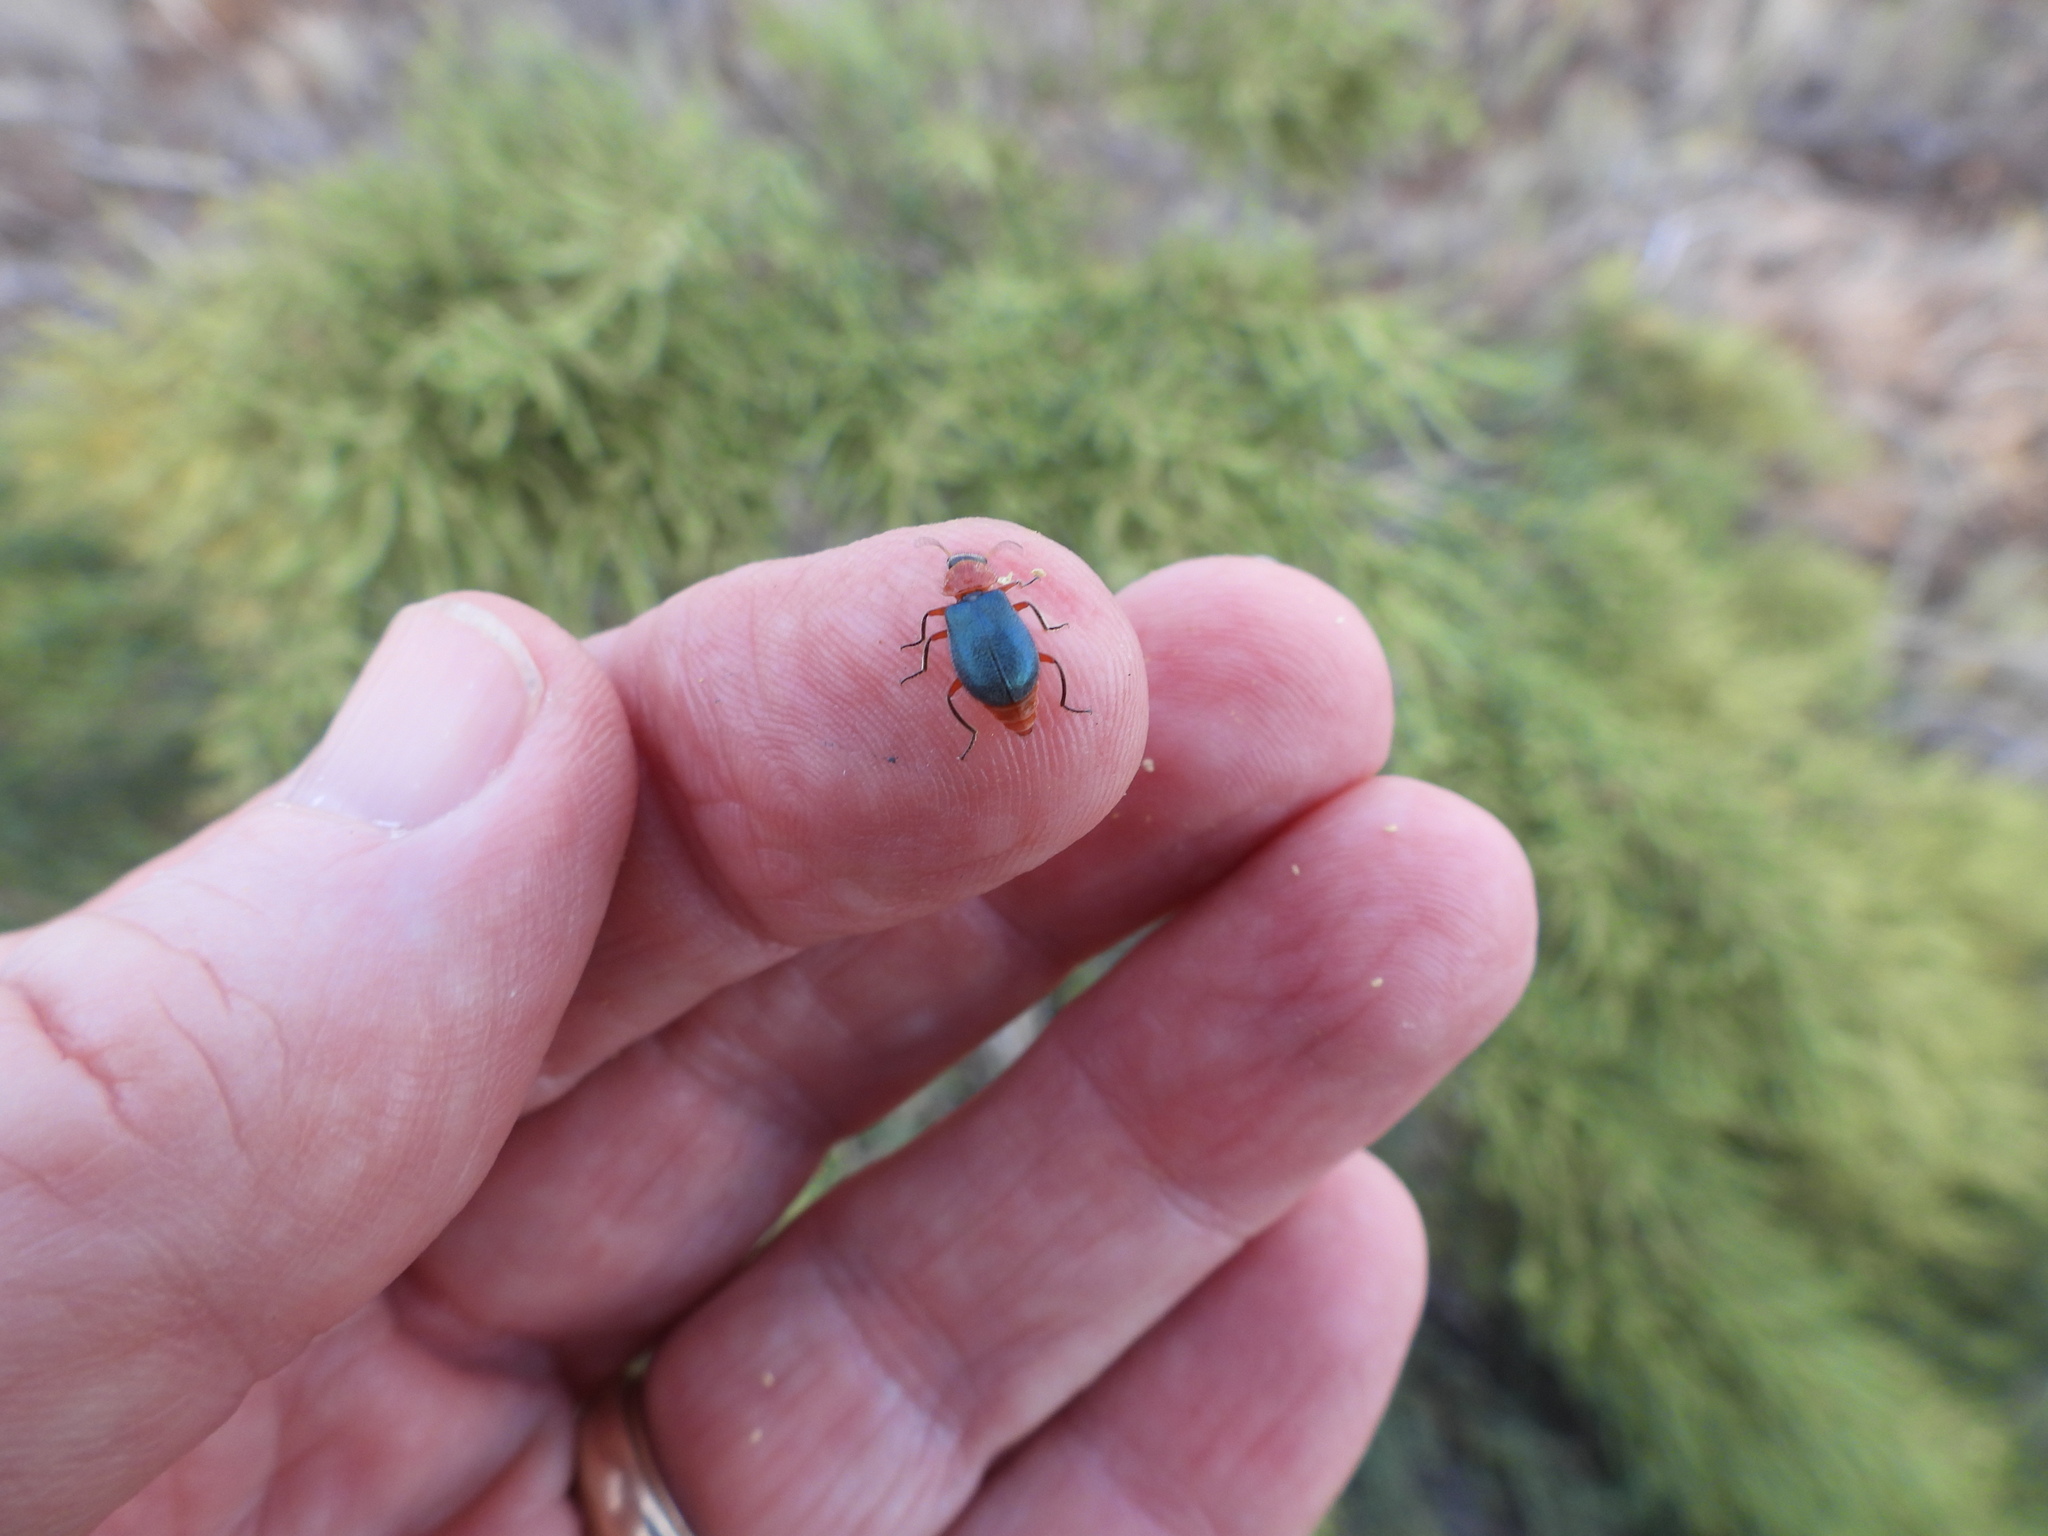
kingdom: Animalia
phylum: Arthropoda
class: Insecta
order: Hemiptera
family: Pentatomidae
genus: Perillus
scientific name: Perillus bioculatus
